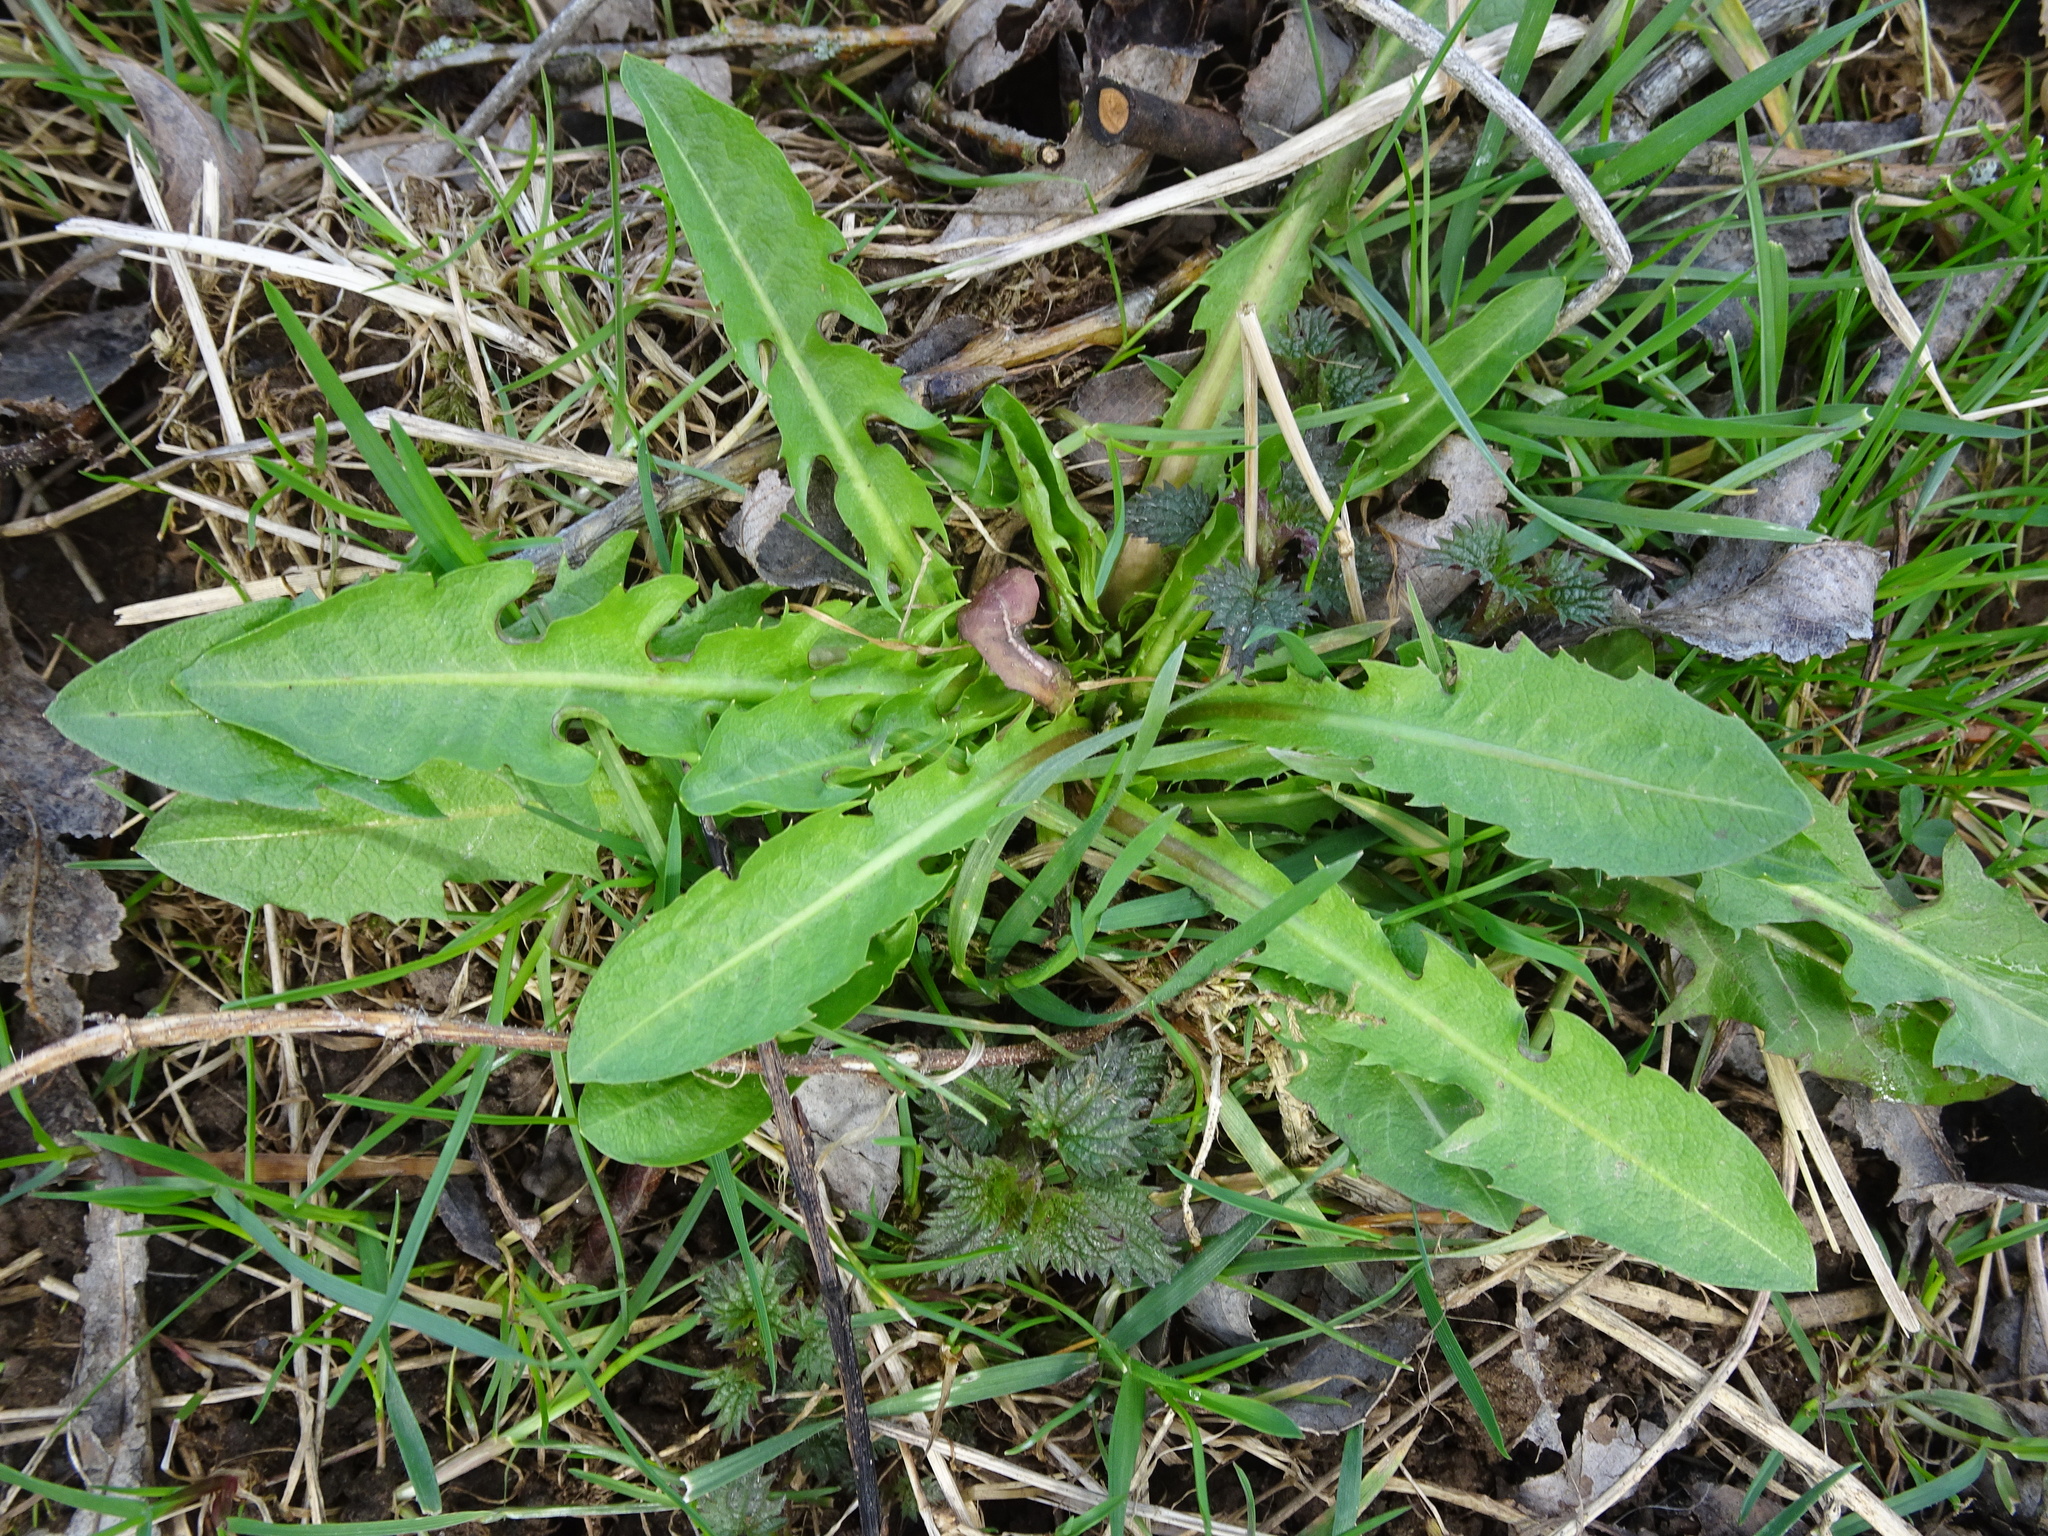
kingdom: Plantae
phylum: Tracheophyta
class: Magnoliopsida
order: Asterales
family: Asteraceae
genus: Taraxacum
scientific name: Taraxacum officinale
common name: Common dandelion
